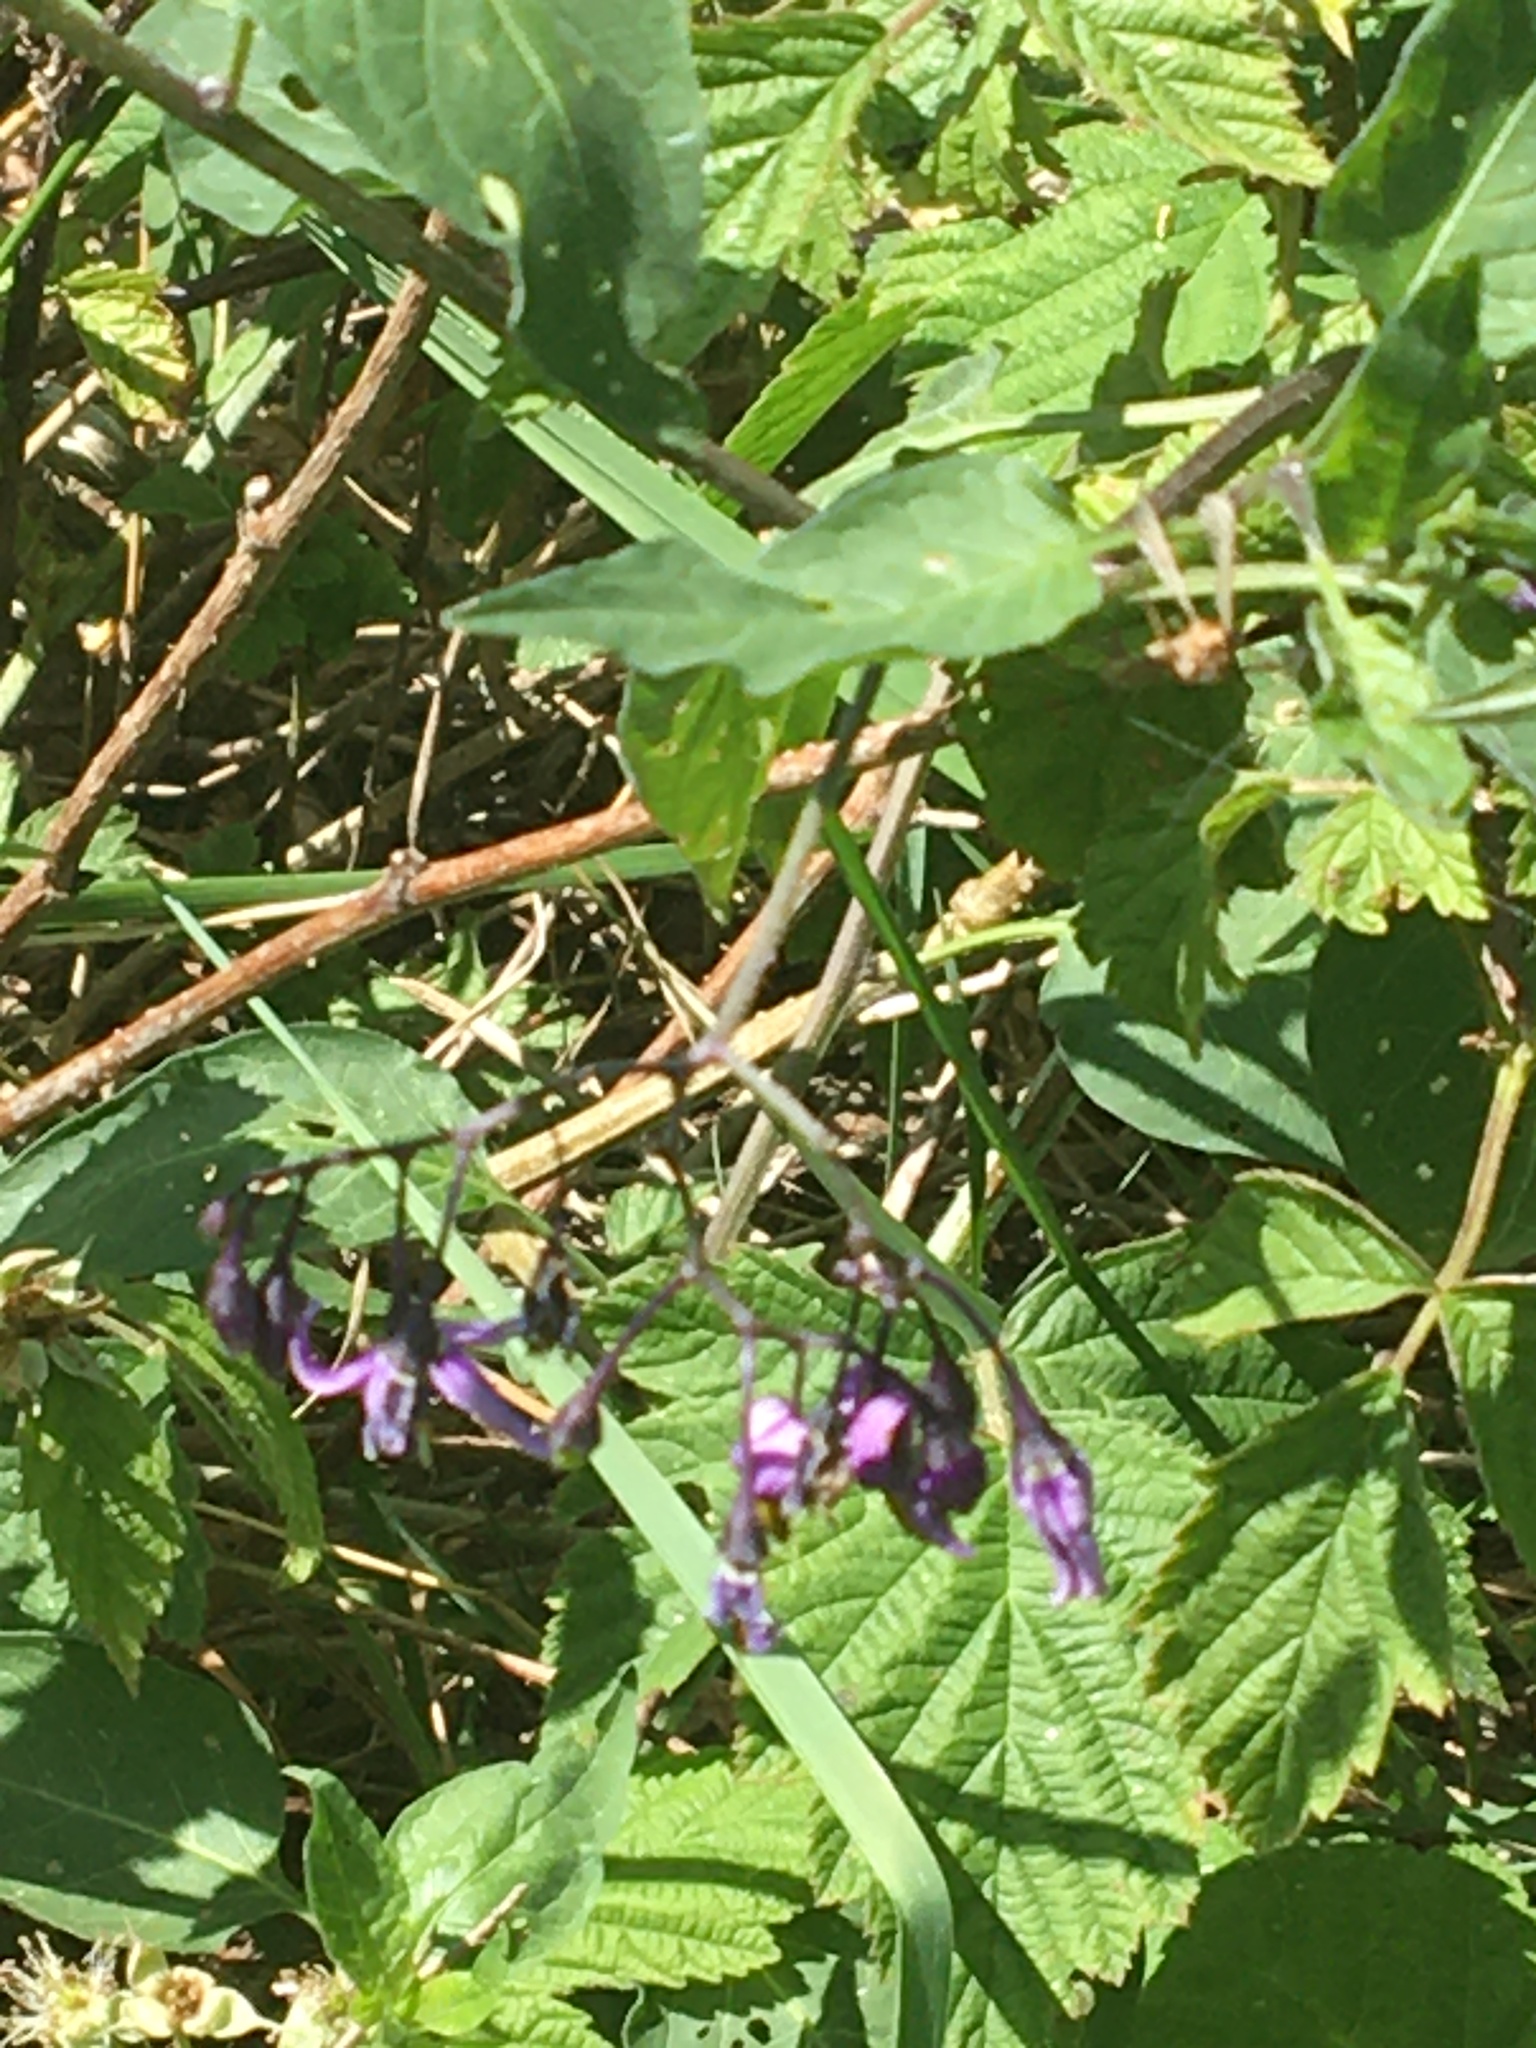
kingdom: Plantae
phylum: Tracheophyta
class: Magnoliopsida
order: Solanales
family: Solanaceae
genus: Solanum
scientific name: Solanum dulcamara
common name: Climbing nightshade
